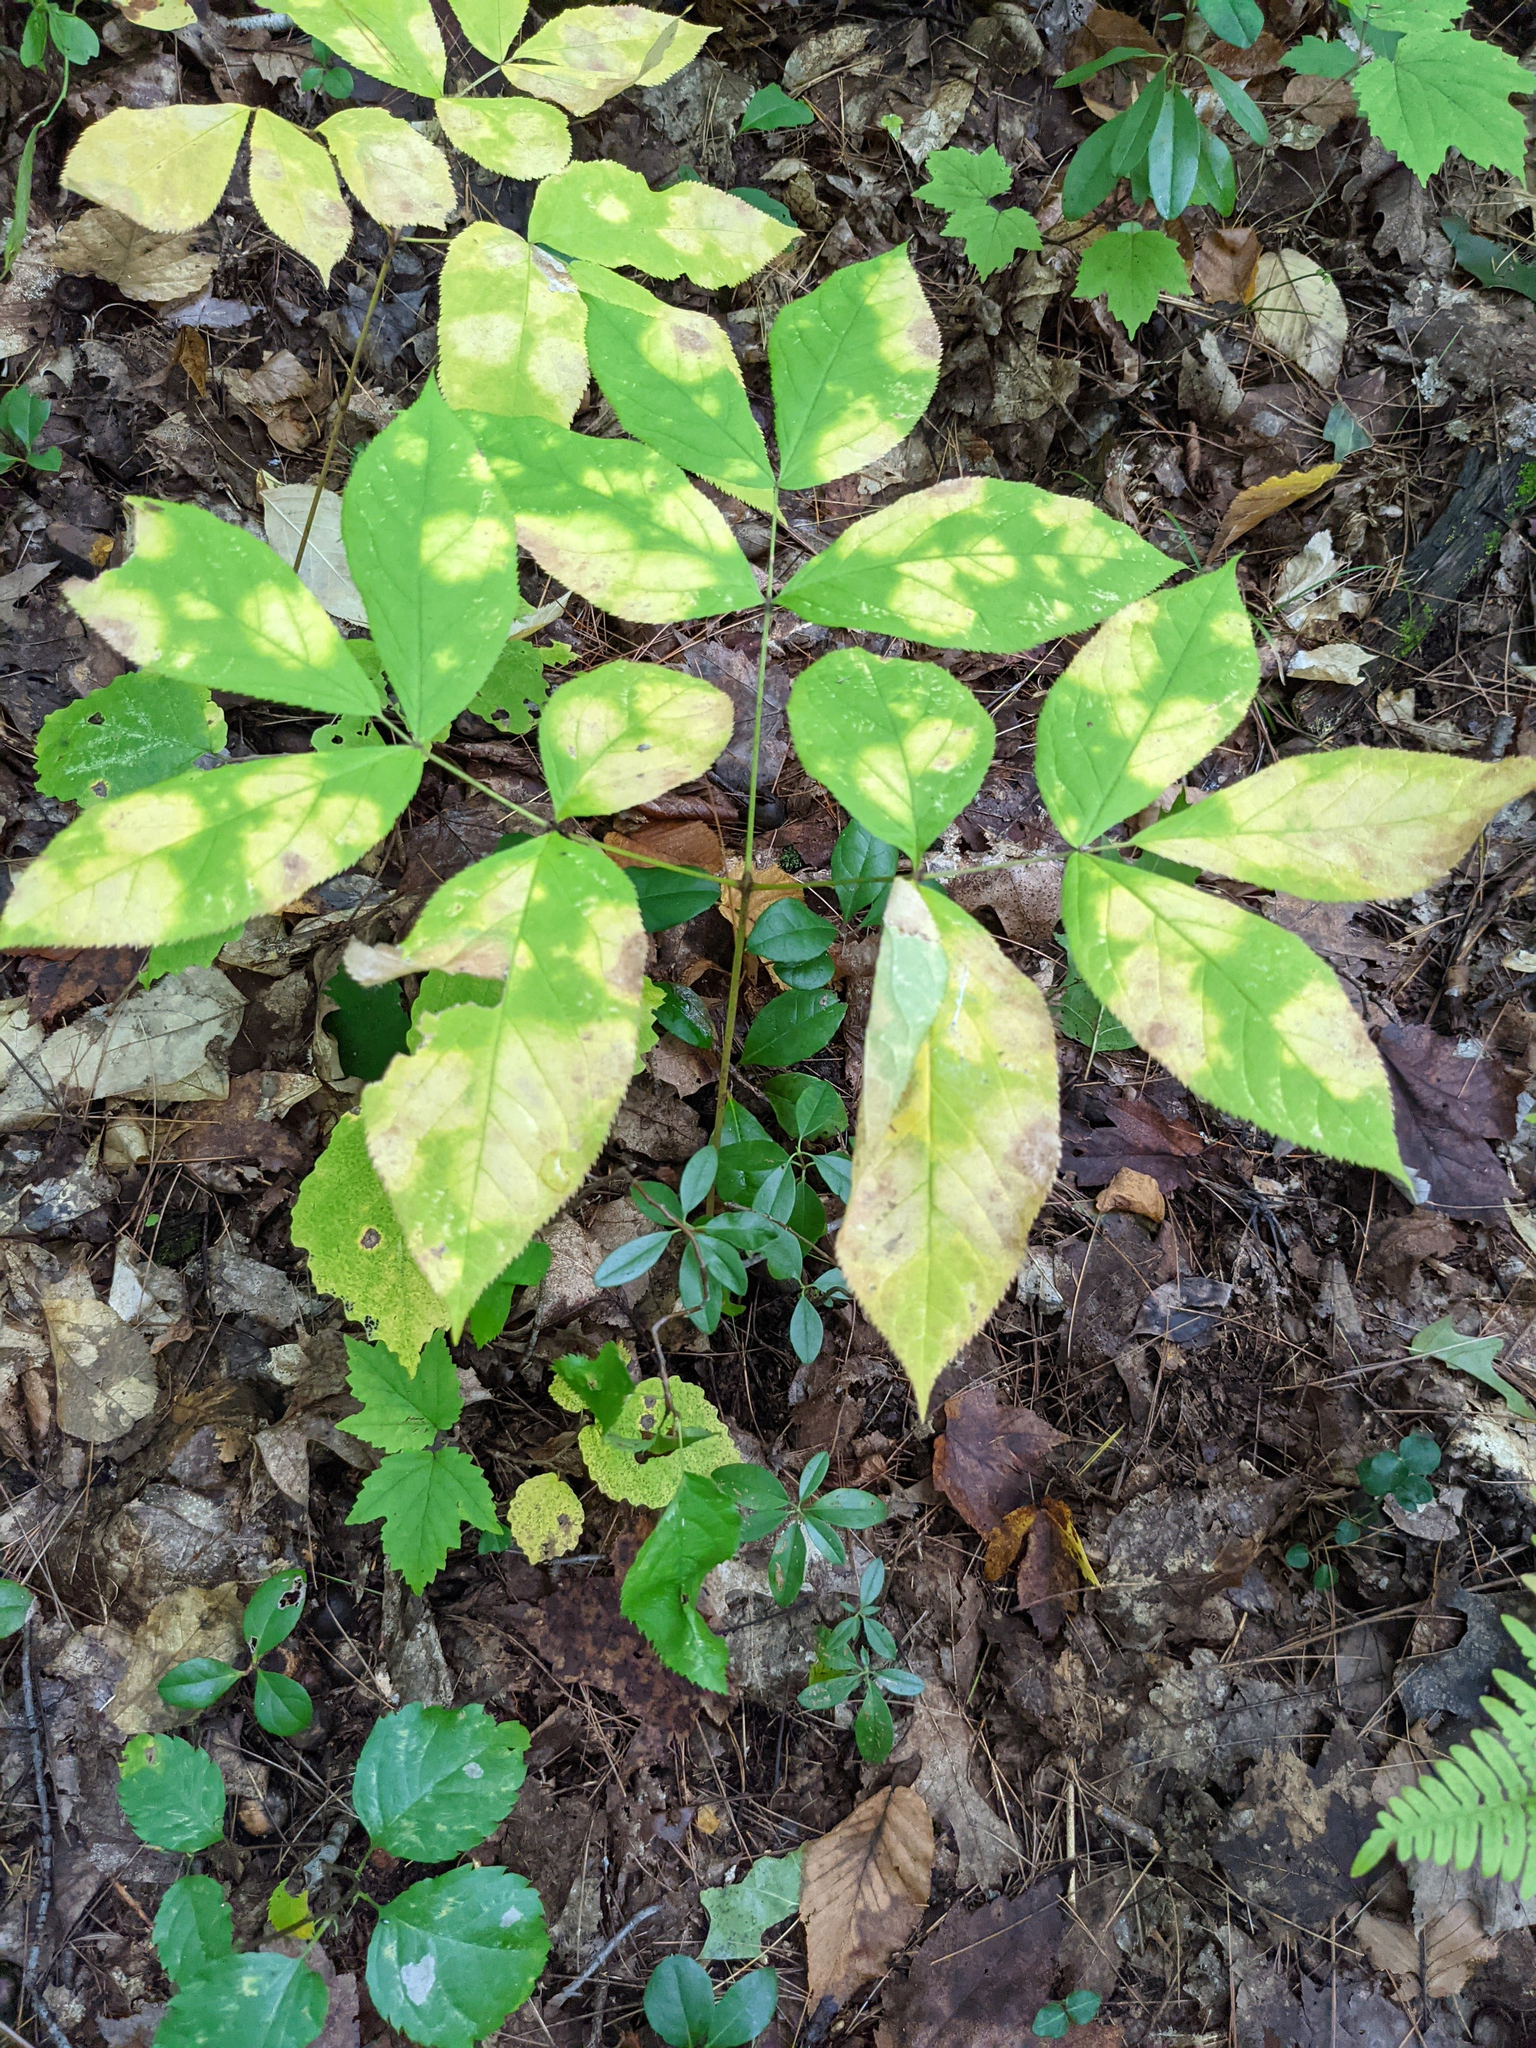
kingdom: Plantae
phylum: Tracheophyta
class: Magnoliopsida
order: Apiales
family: Araliaceae
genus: Aralia
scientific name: Aralia nudicaulis
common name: Wild sarsaparilla
